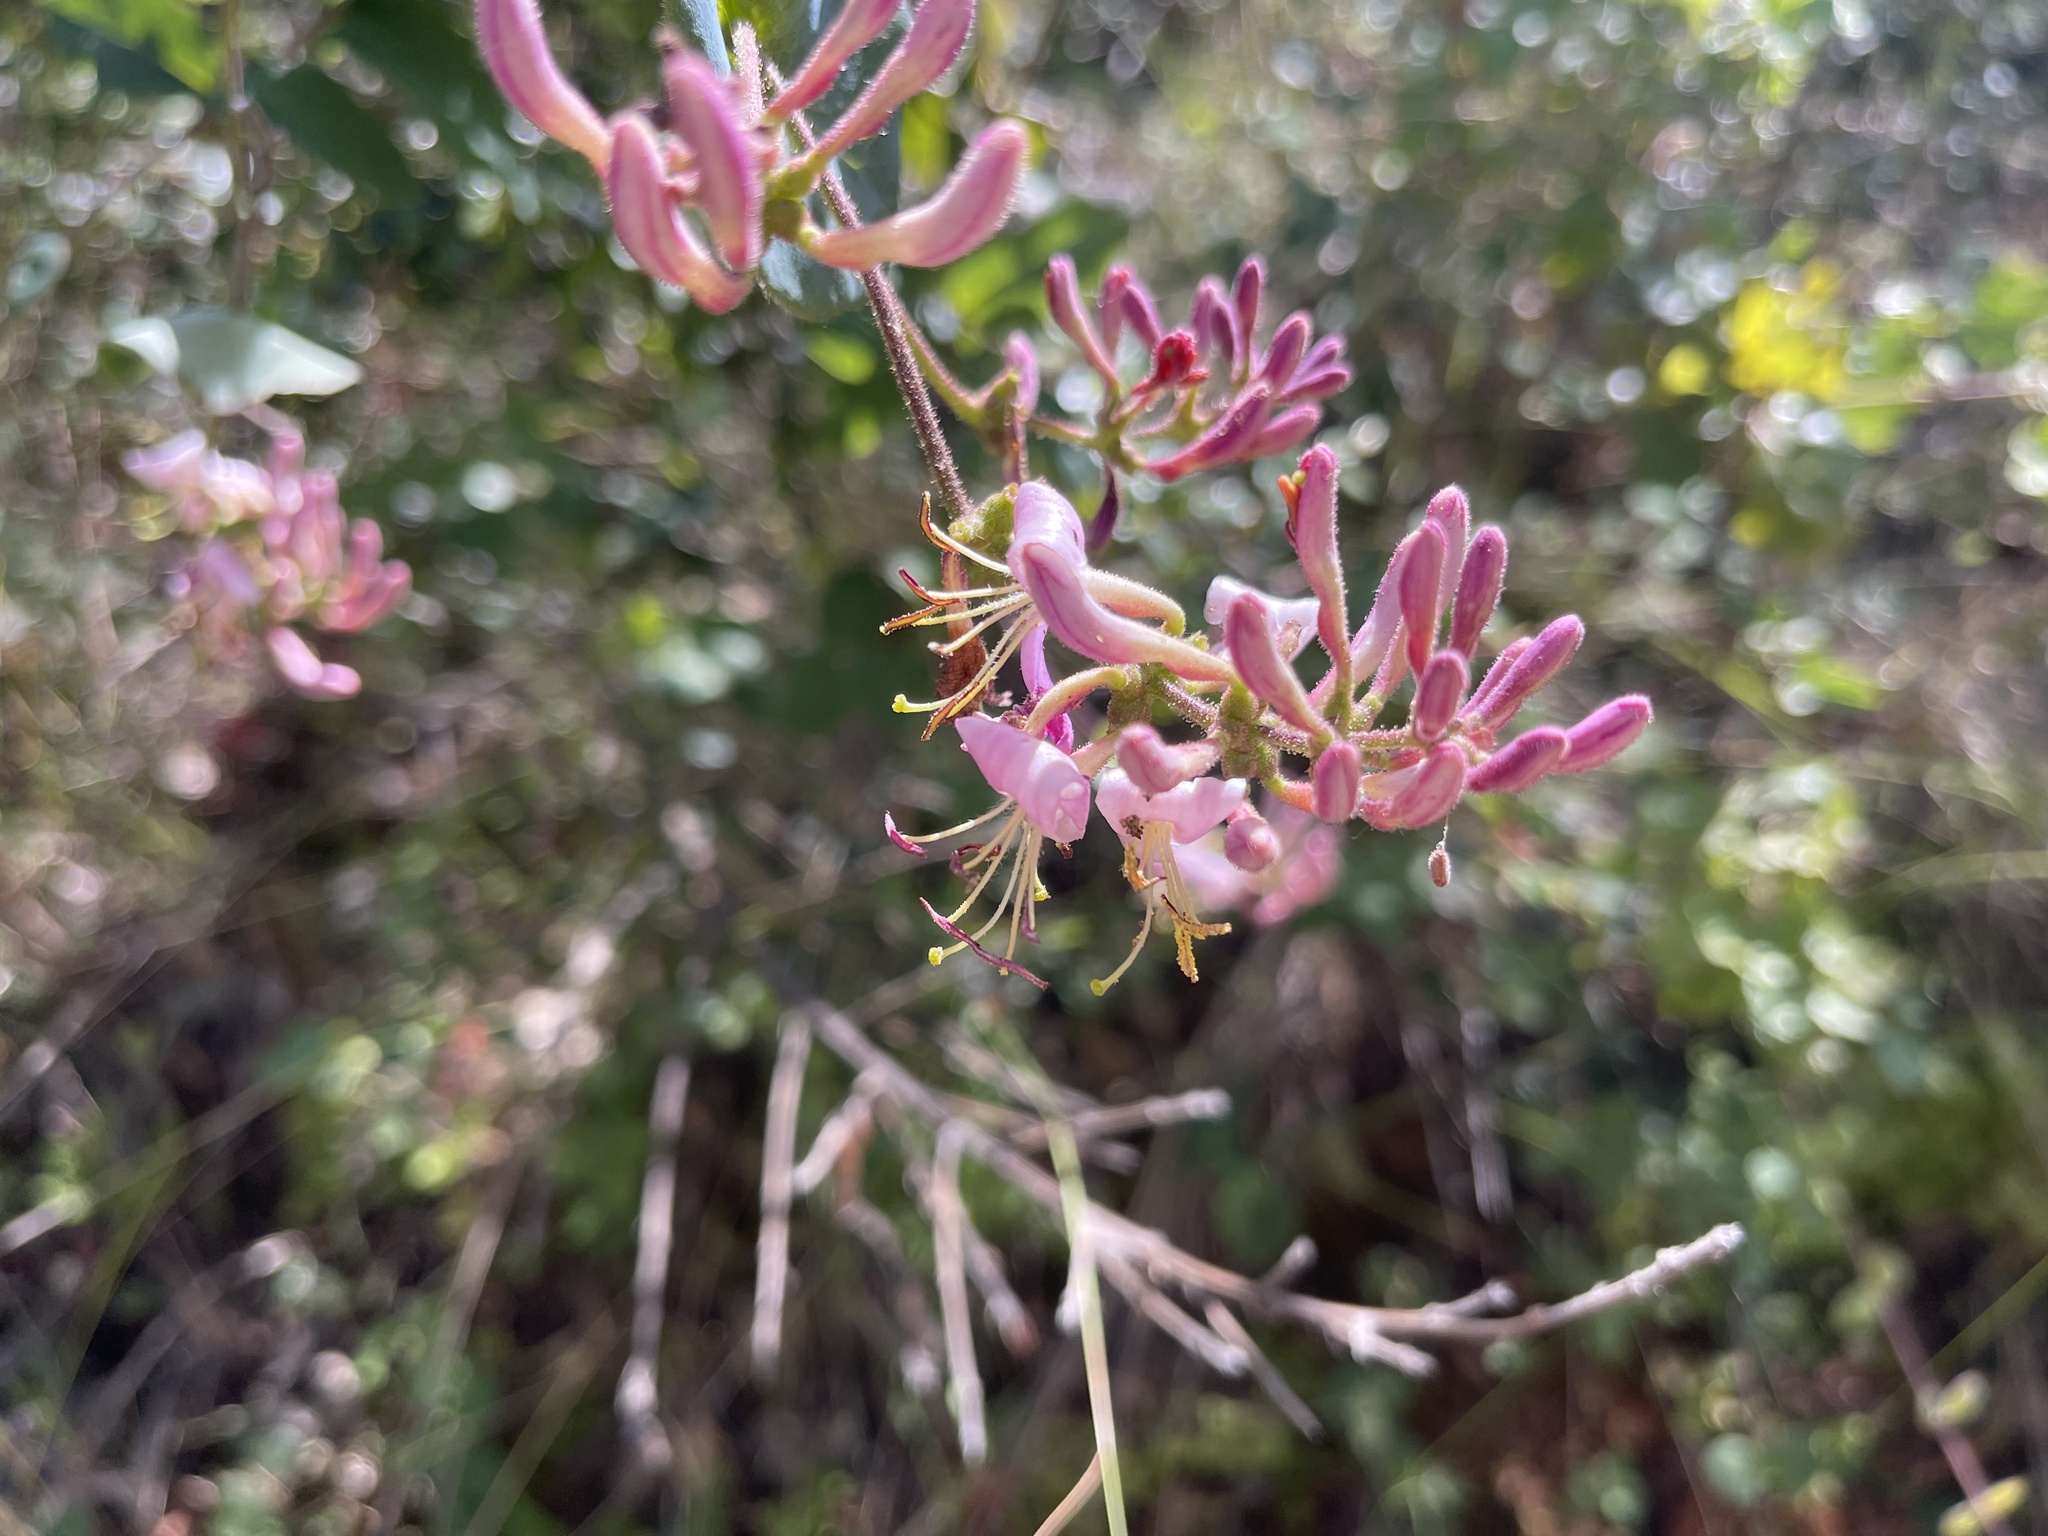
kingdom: Plantae
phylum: Tracheophyta
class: Magnoliopsida
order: Dipsacales
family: Caprifoliaceae
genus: Lonicera
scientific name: Lonicera hispidula
